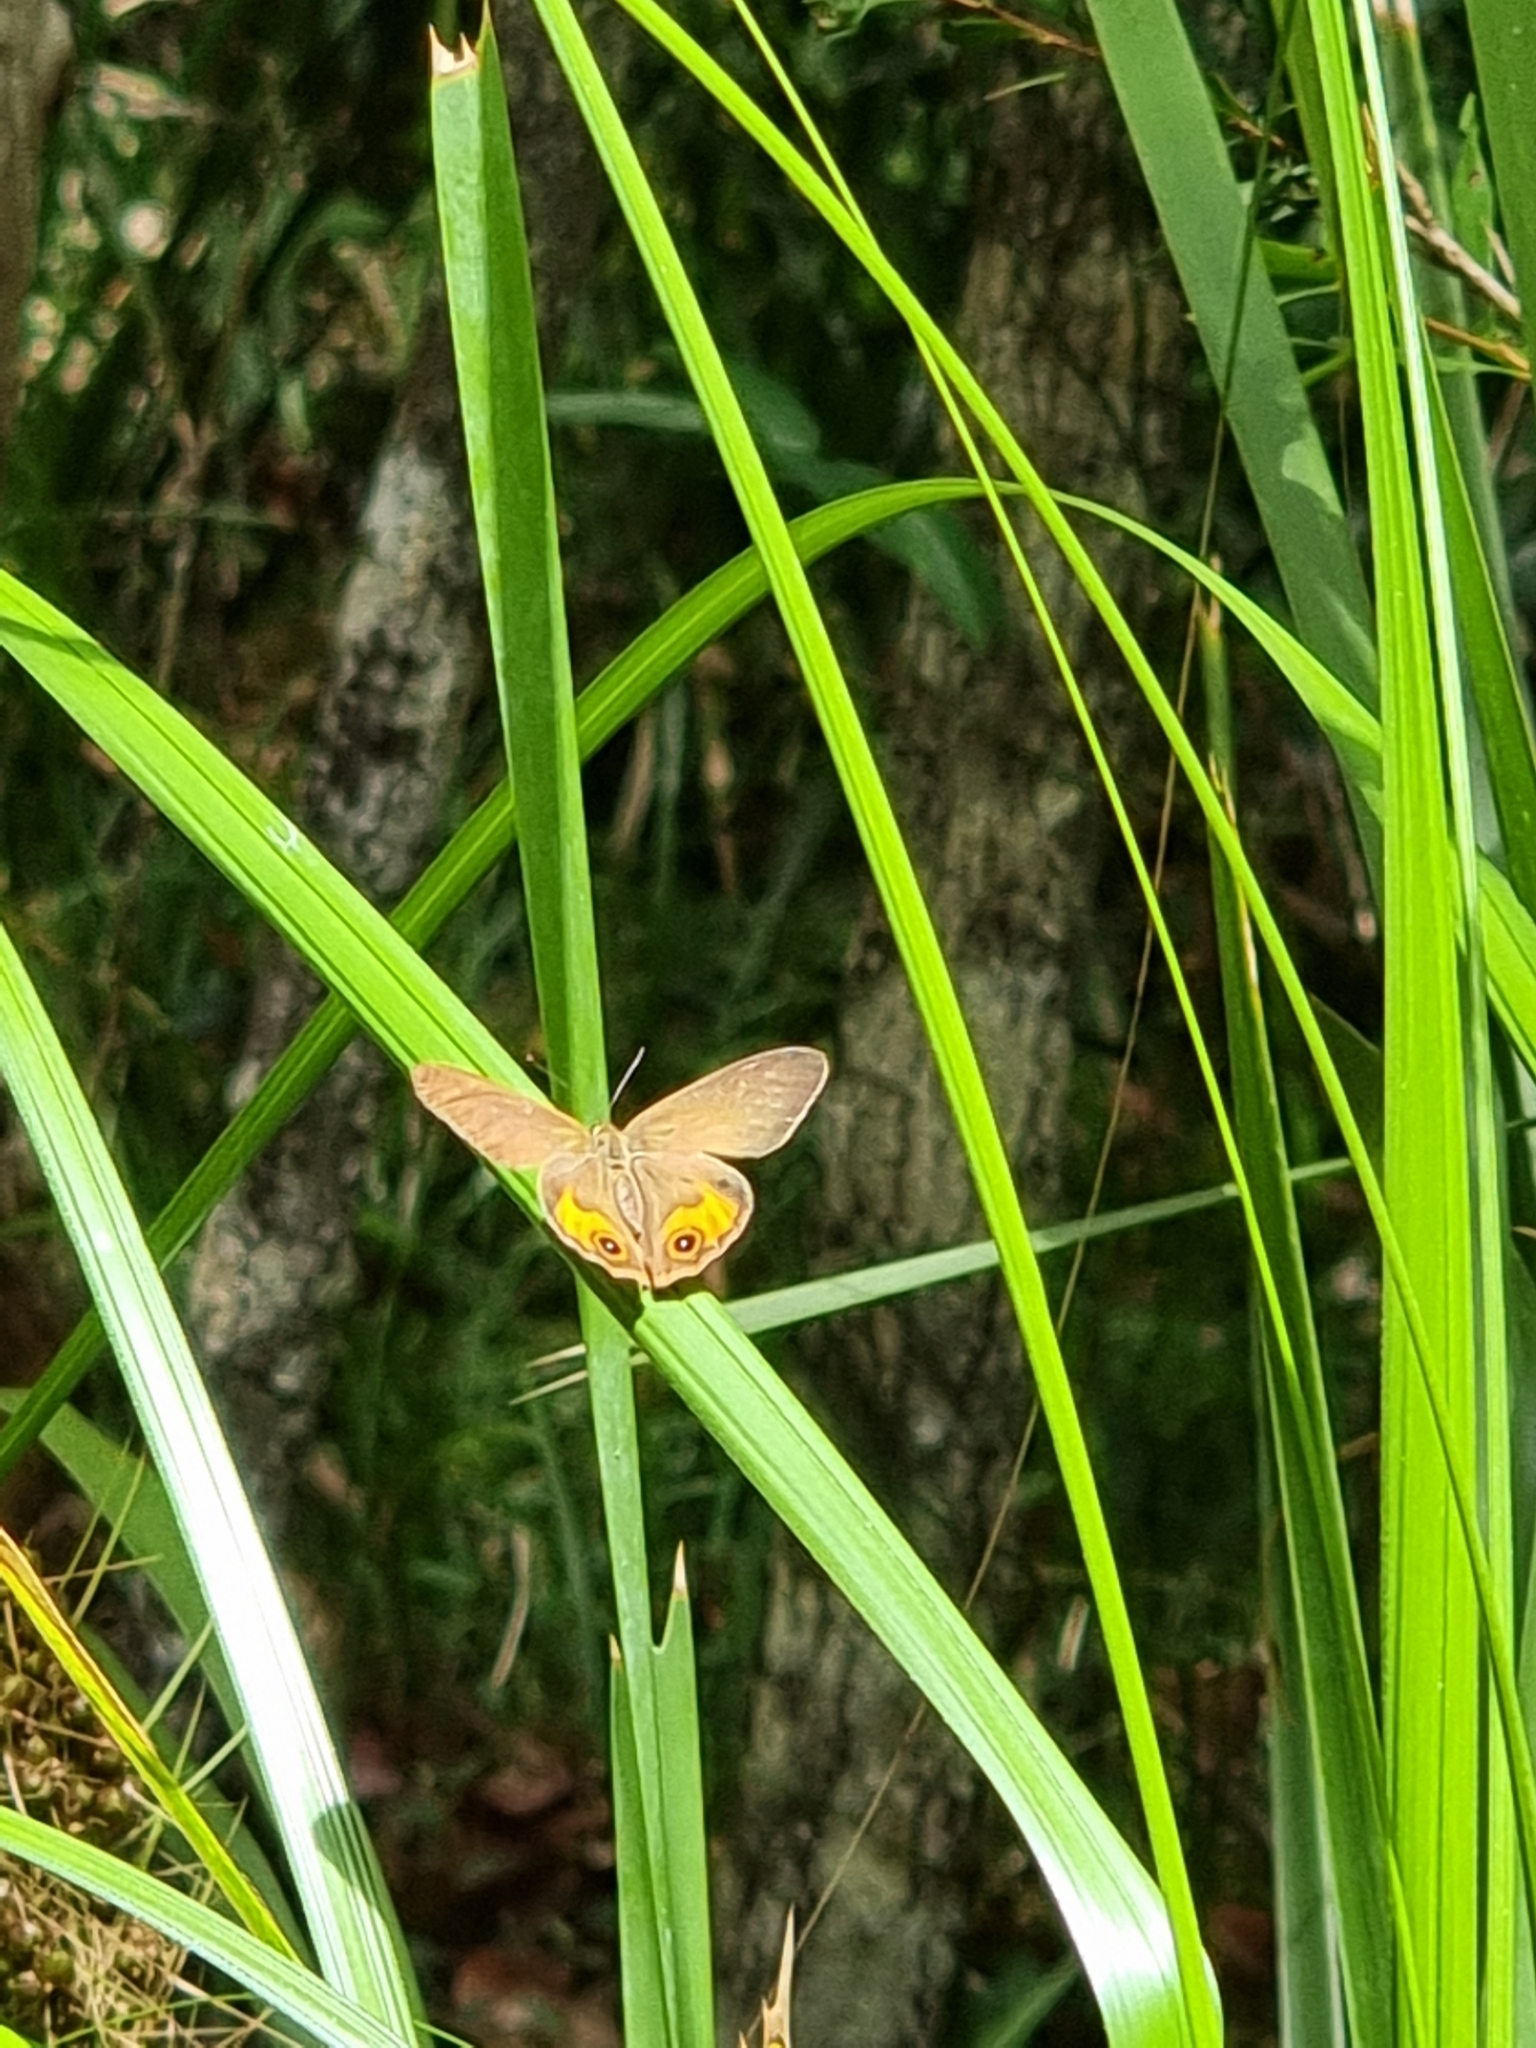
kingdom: Animalia
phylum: Arthropoda
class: Insecta
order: Lepidoptera
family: Nymphalidae
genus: Hypocysta
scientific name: Hypocysta metirius
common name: Brown ringlet
